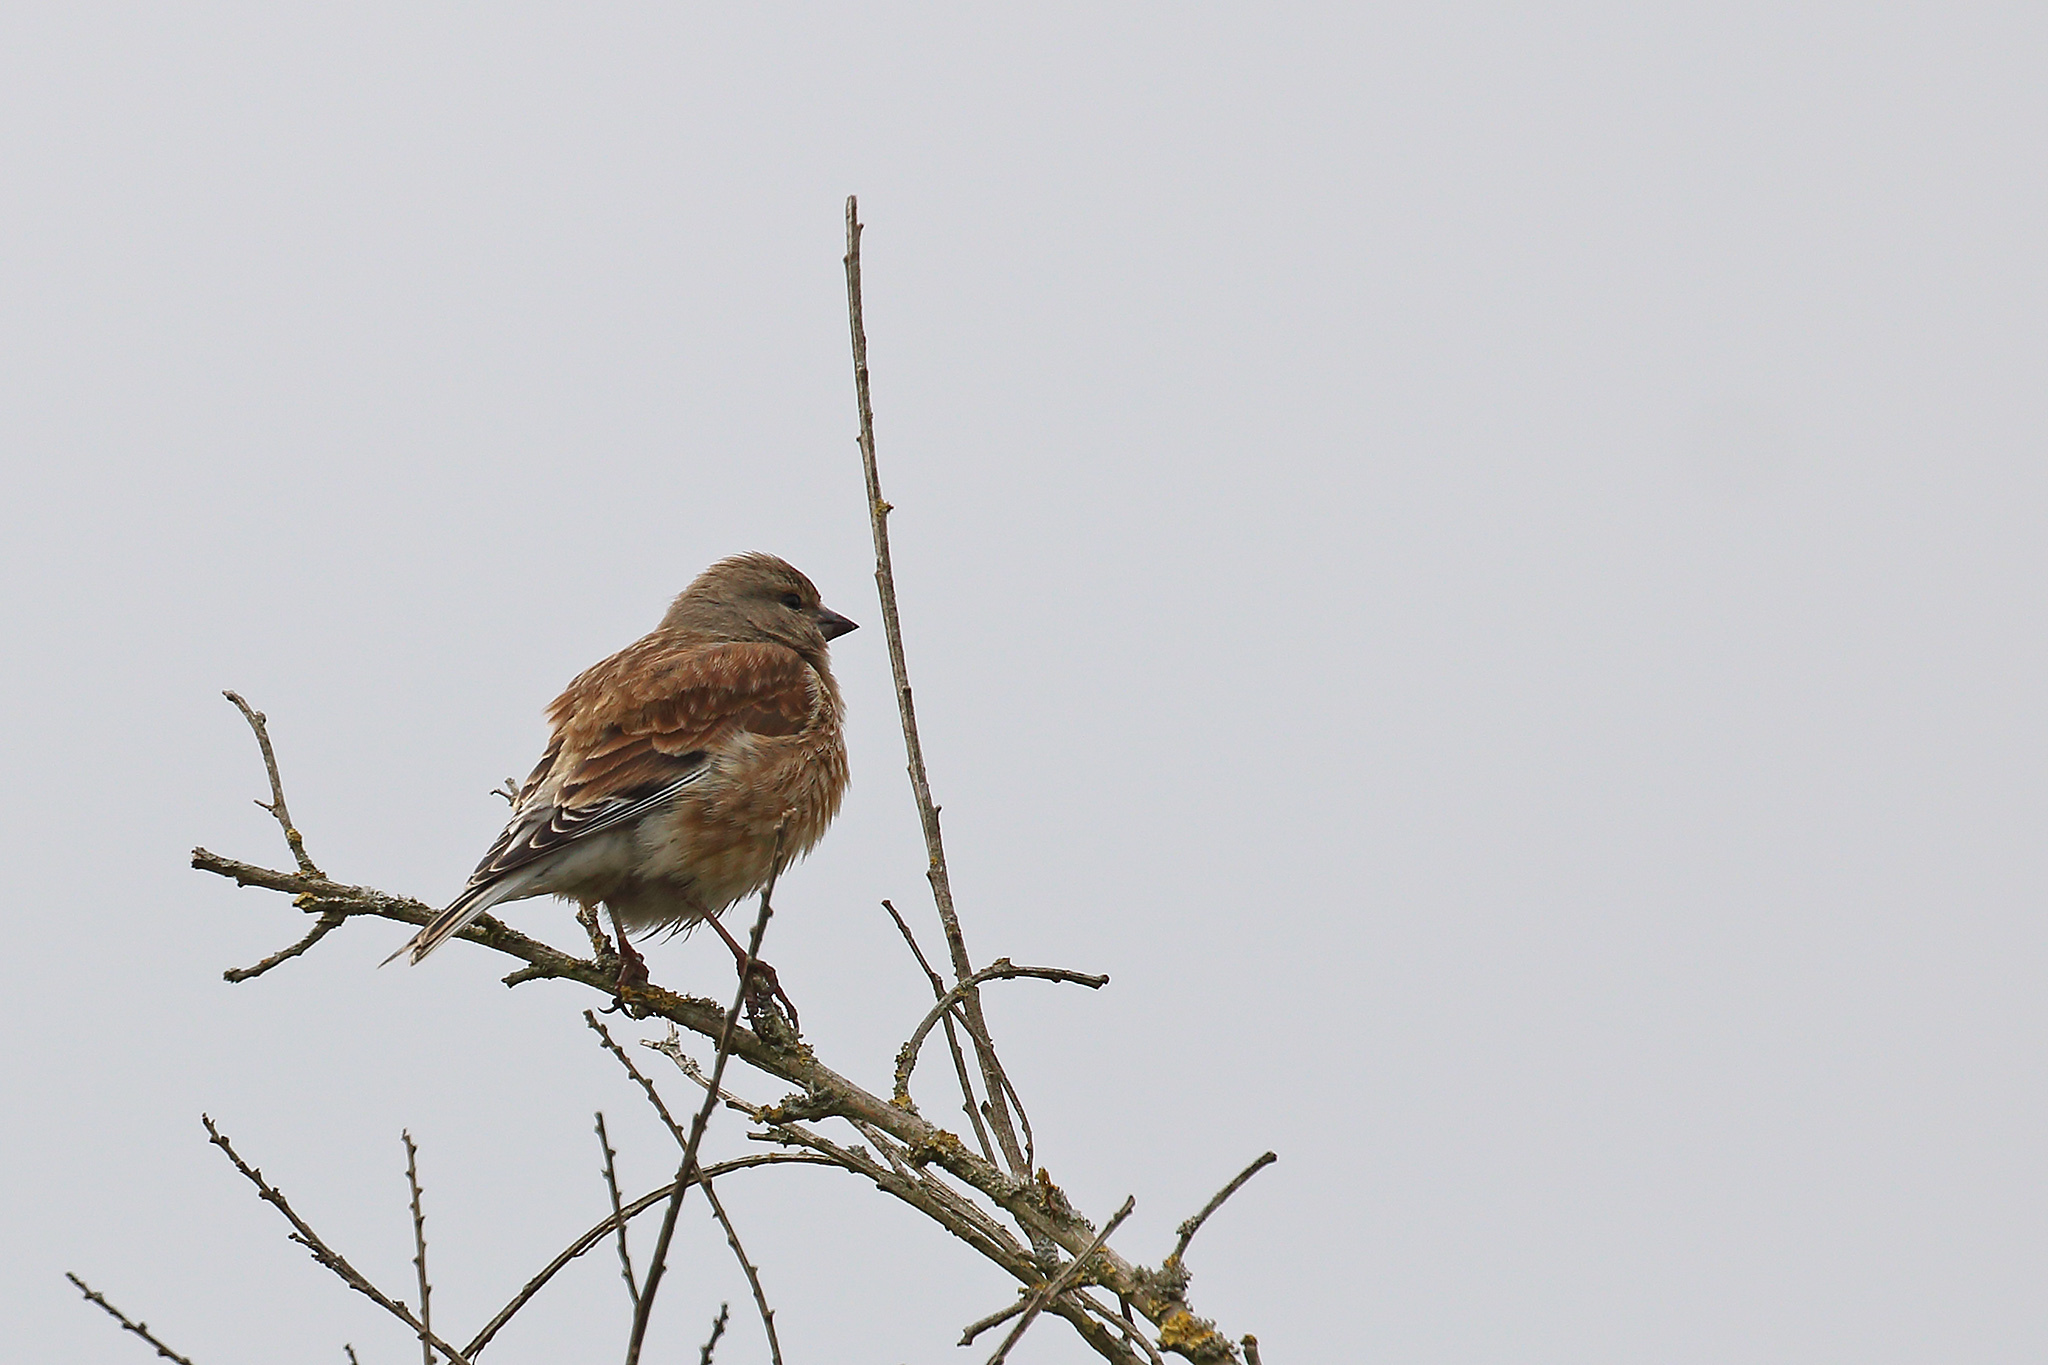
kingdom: Animalia
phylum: Chordata
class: Aves
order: Passeriformes
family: Fringillidae
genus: Linaria
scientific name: Linaria cannabina
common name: Common linnet
